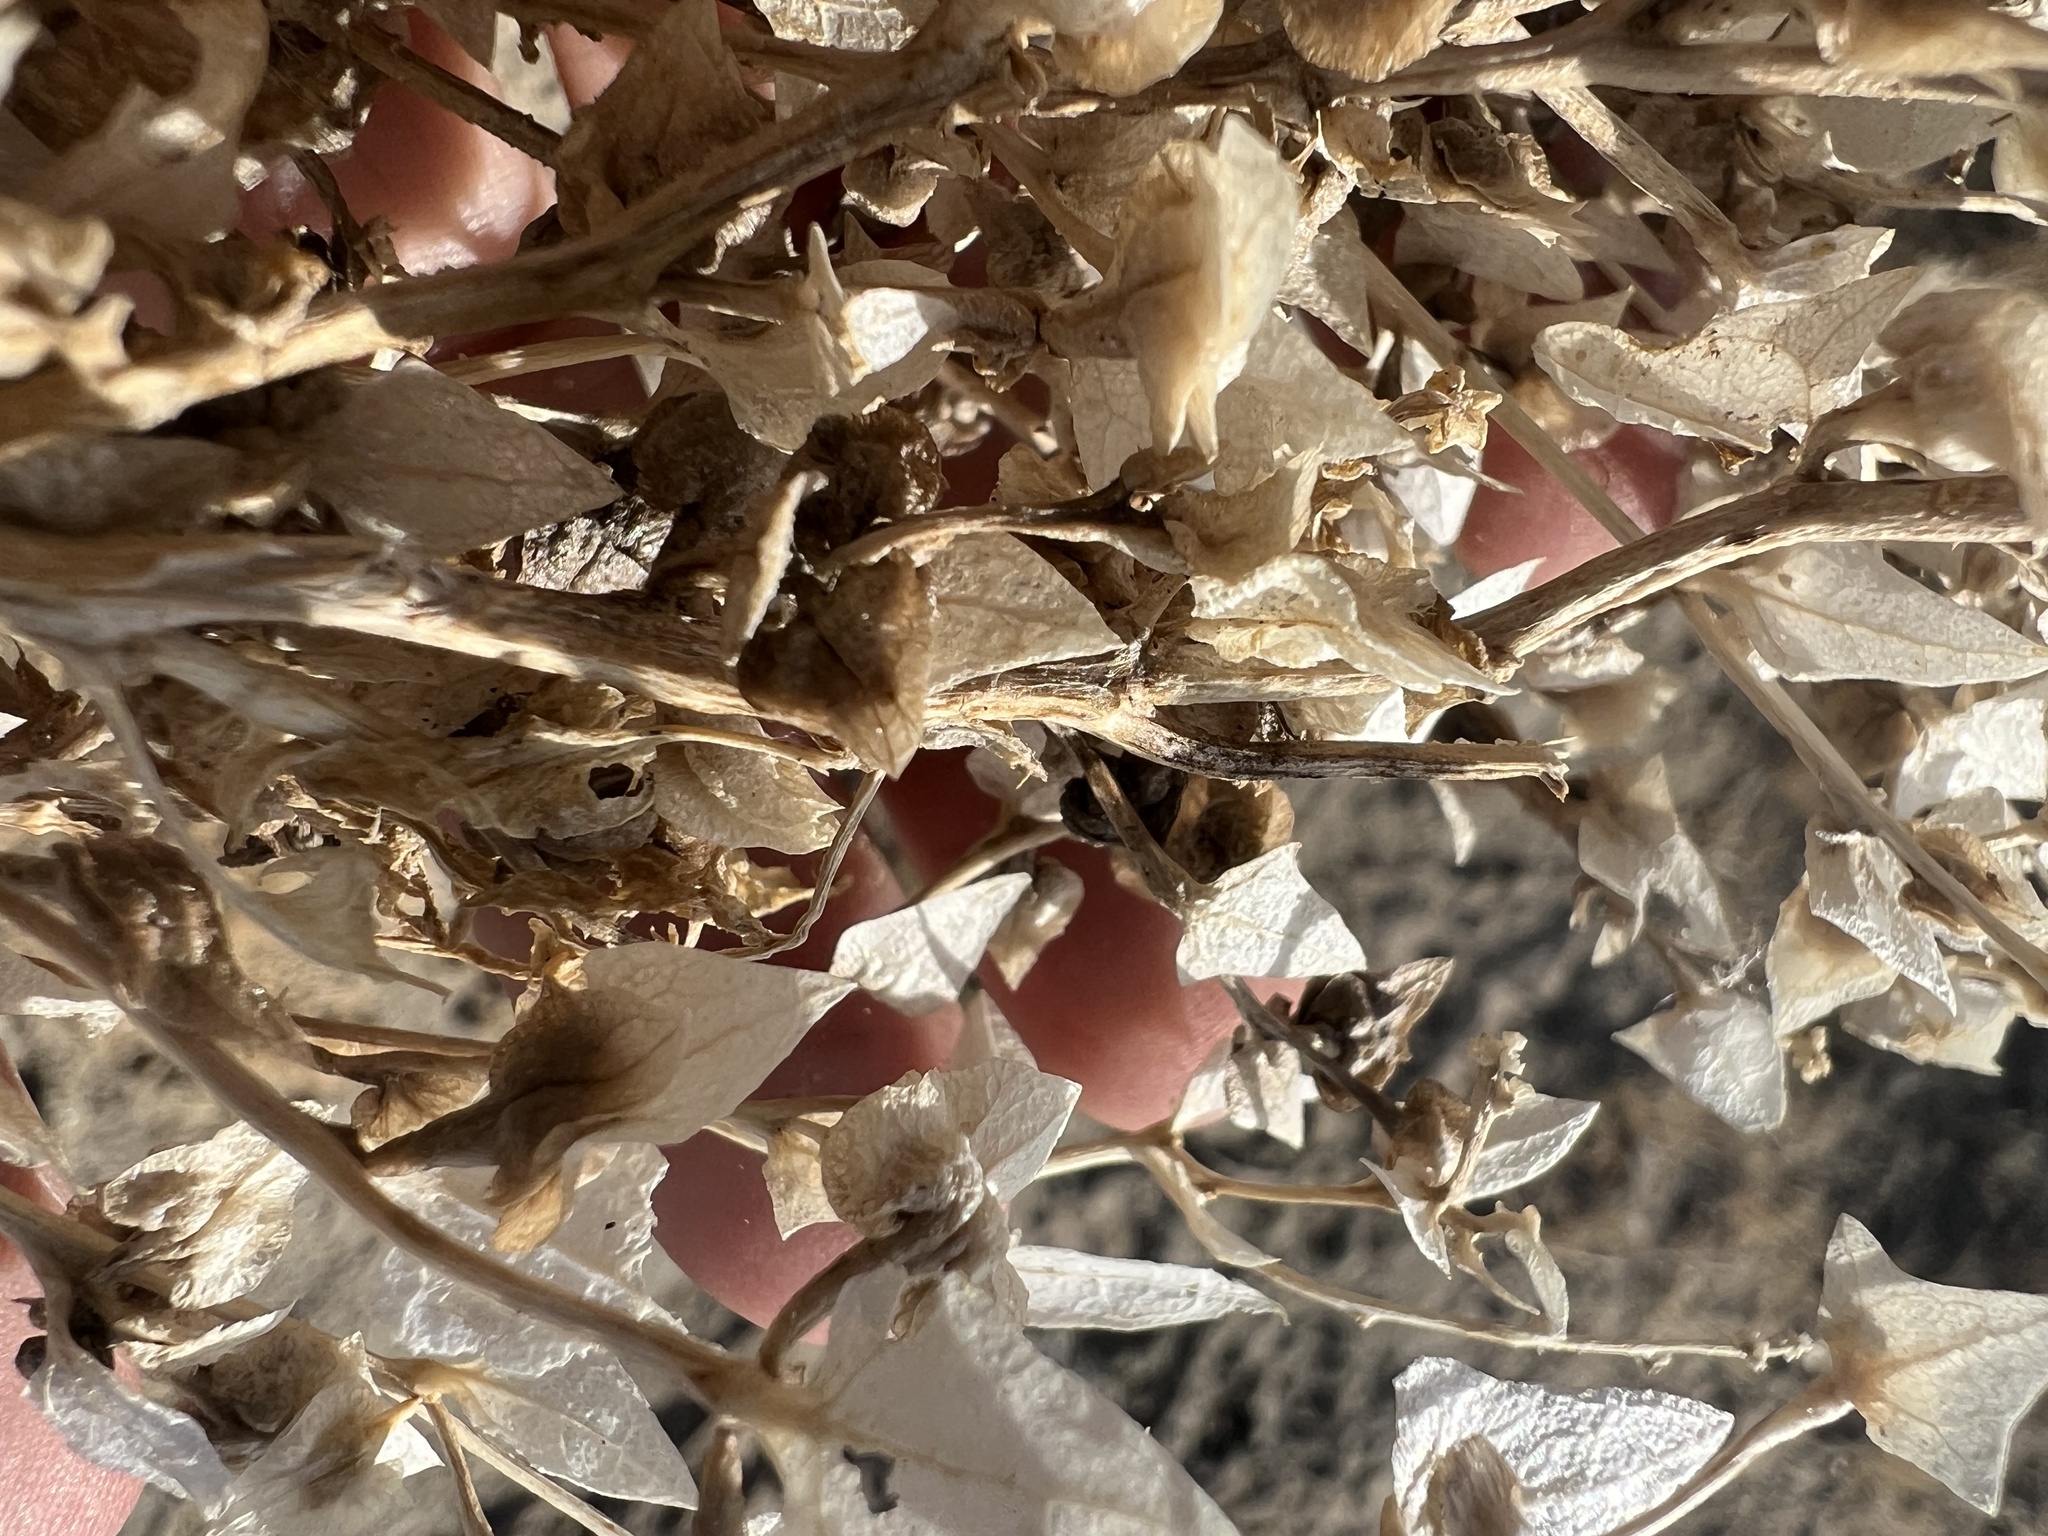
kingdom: Plantae
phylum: Tracheophyta
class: Magnoliopsida
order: Caryophyllales
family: Amaranthaceae
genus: Stutzia
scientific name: Stutzia covillei
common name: Coville's orach
